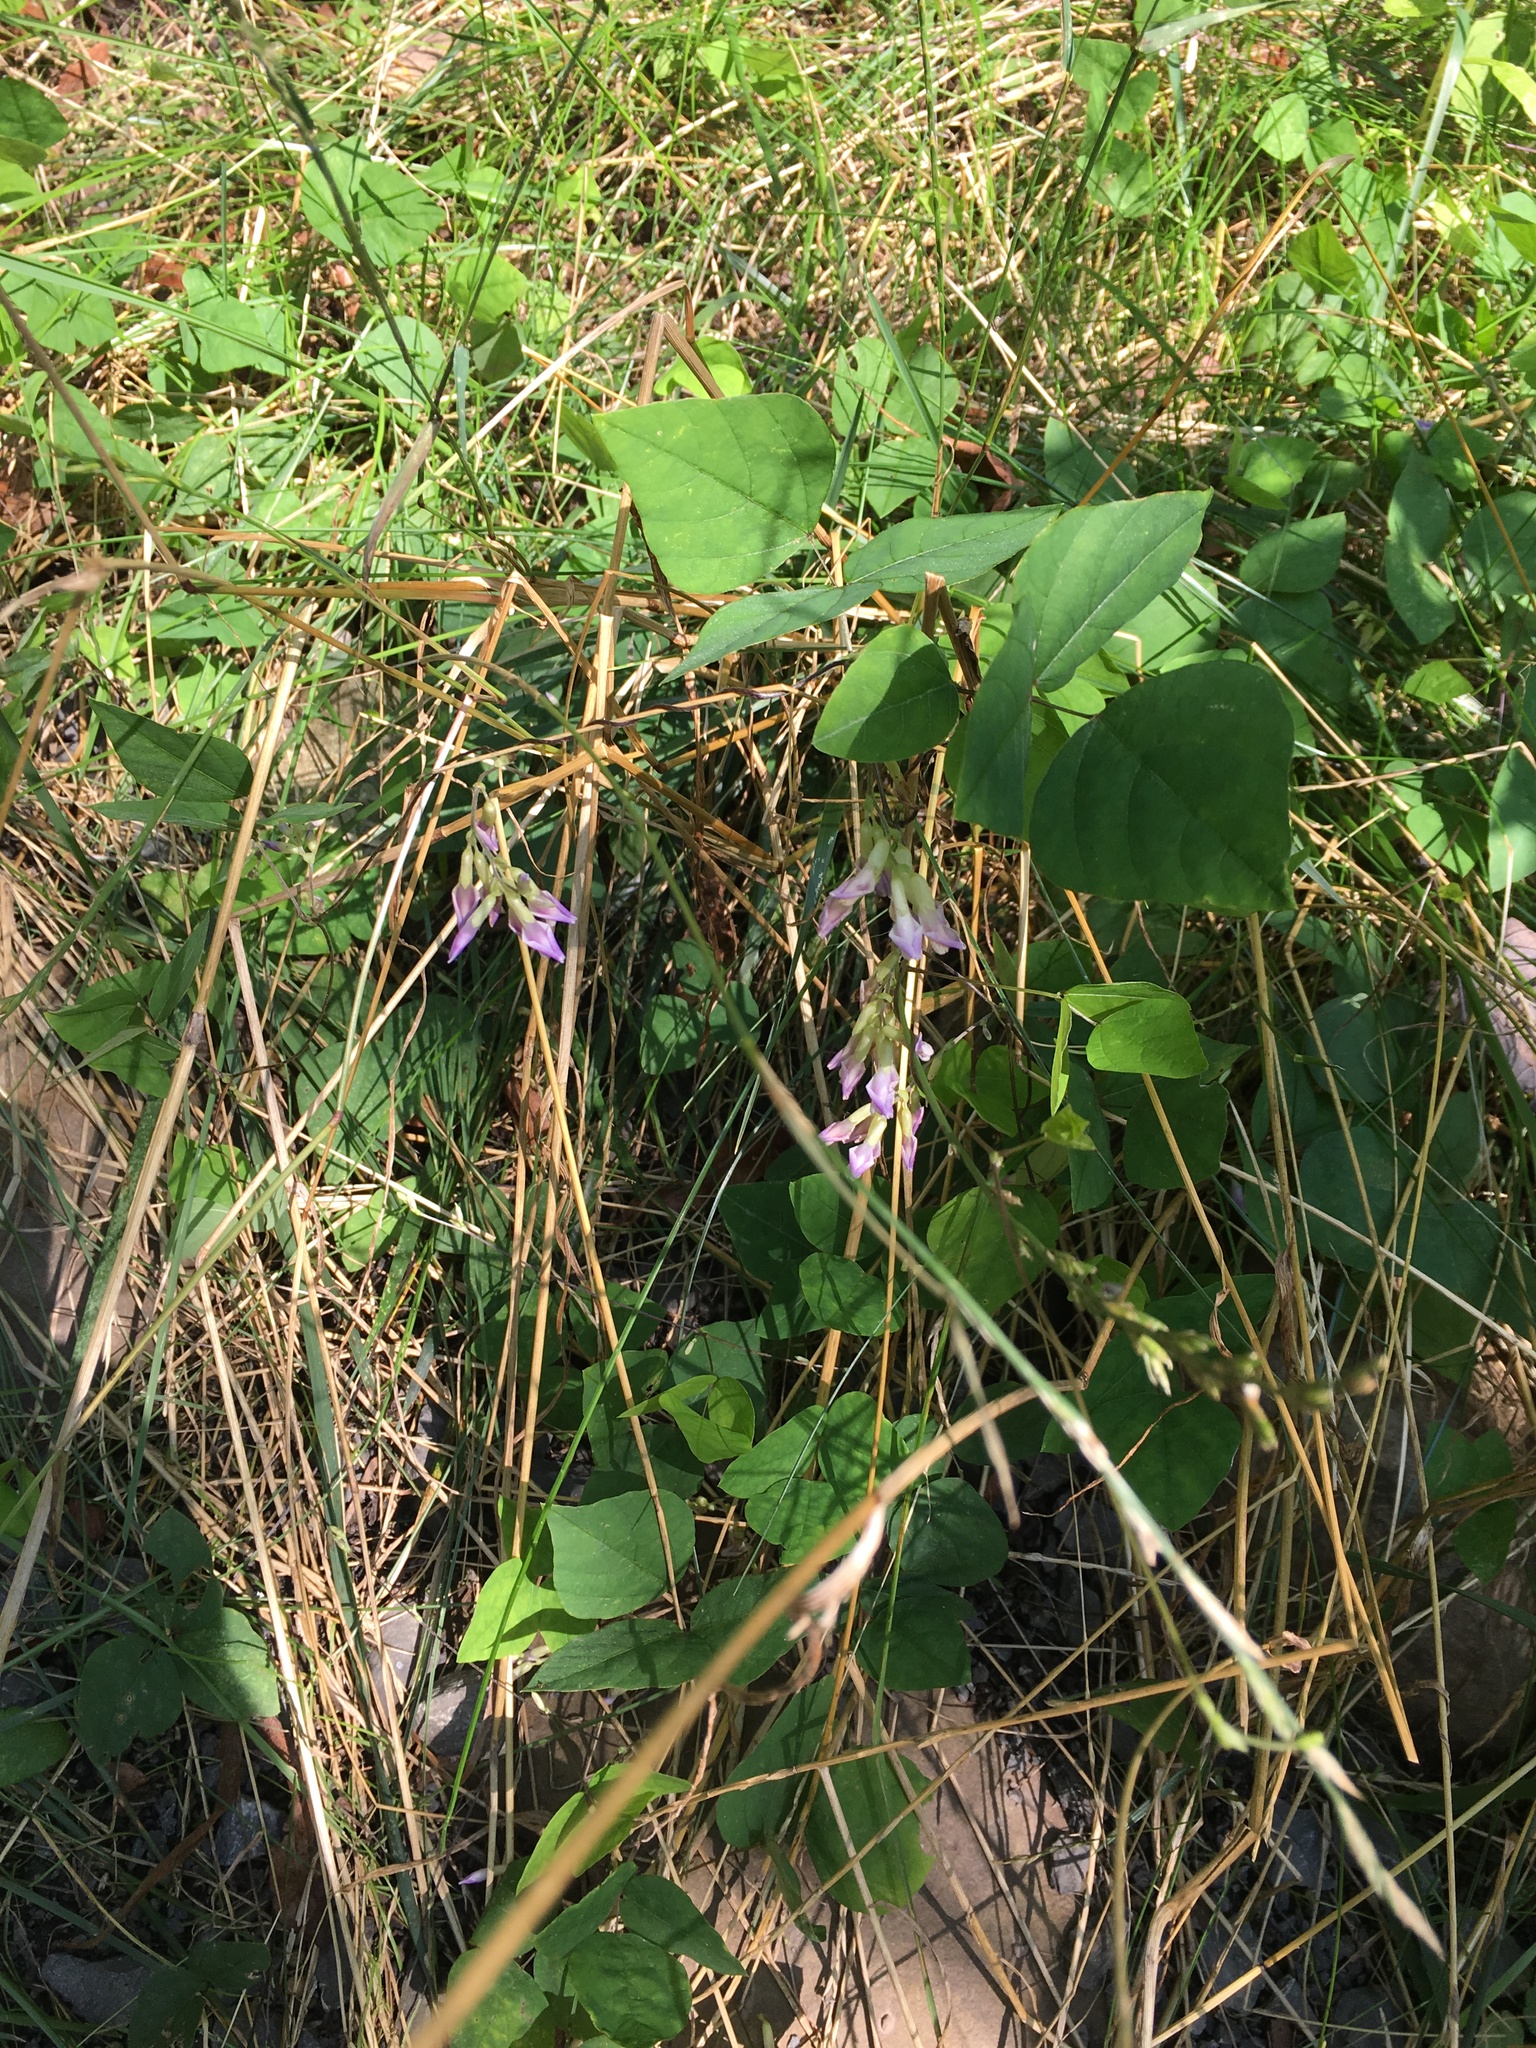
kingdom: Plantae
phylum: Tracheophyta
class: Magnoliopsida
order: Fabales
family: Fabaceae
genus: Amphicarpaea
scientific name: Amphicarpaea bracteata
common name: American hog peanut
